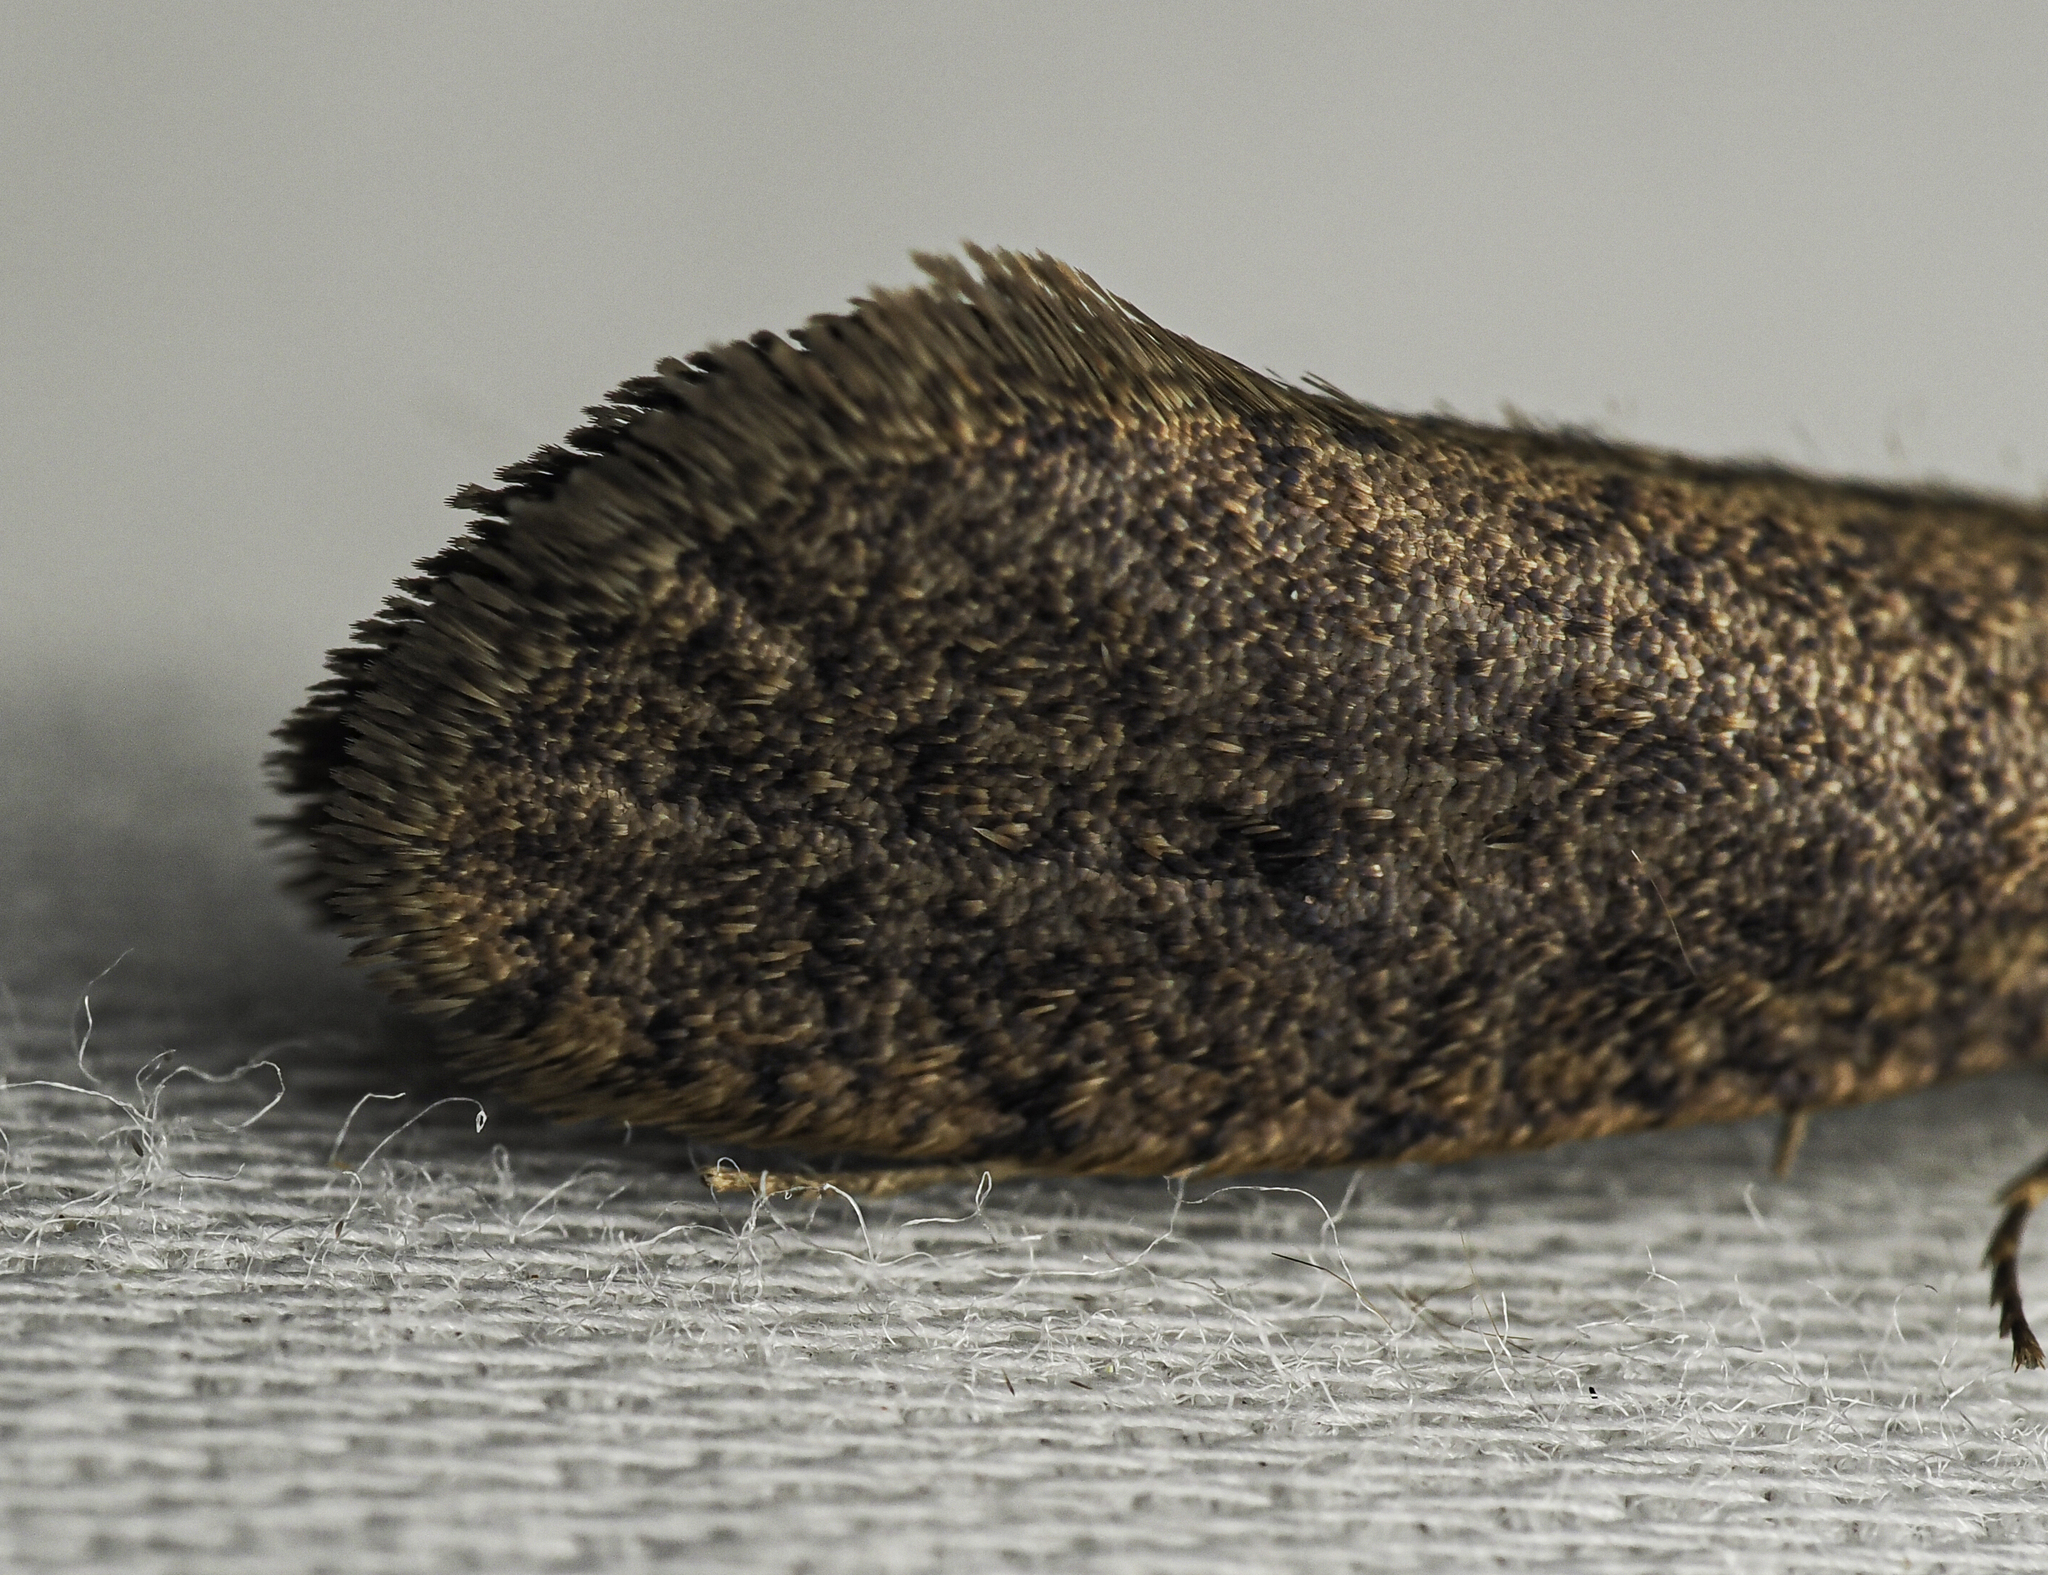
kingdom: Animalia
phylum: Arthropoda
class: Insecta
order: Lepidoptera
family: Tineidae
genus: Acrolophus
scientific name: Acrolophus propinqua
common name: Walsingham's grass tubeworm moth
